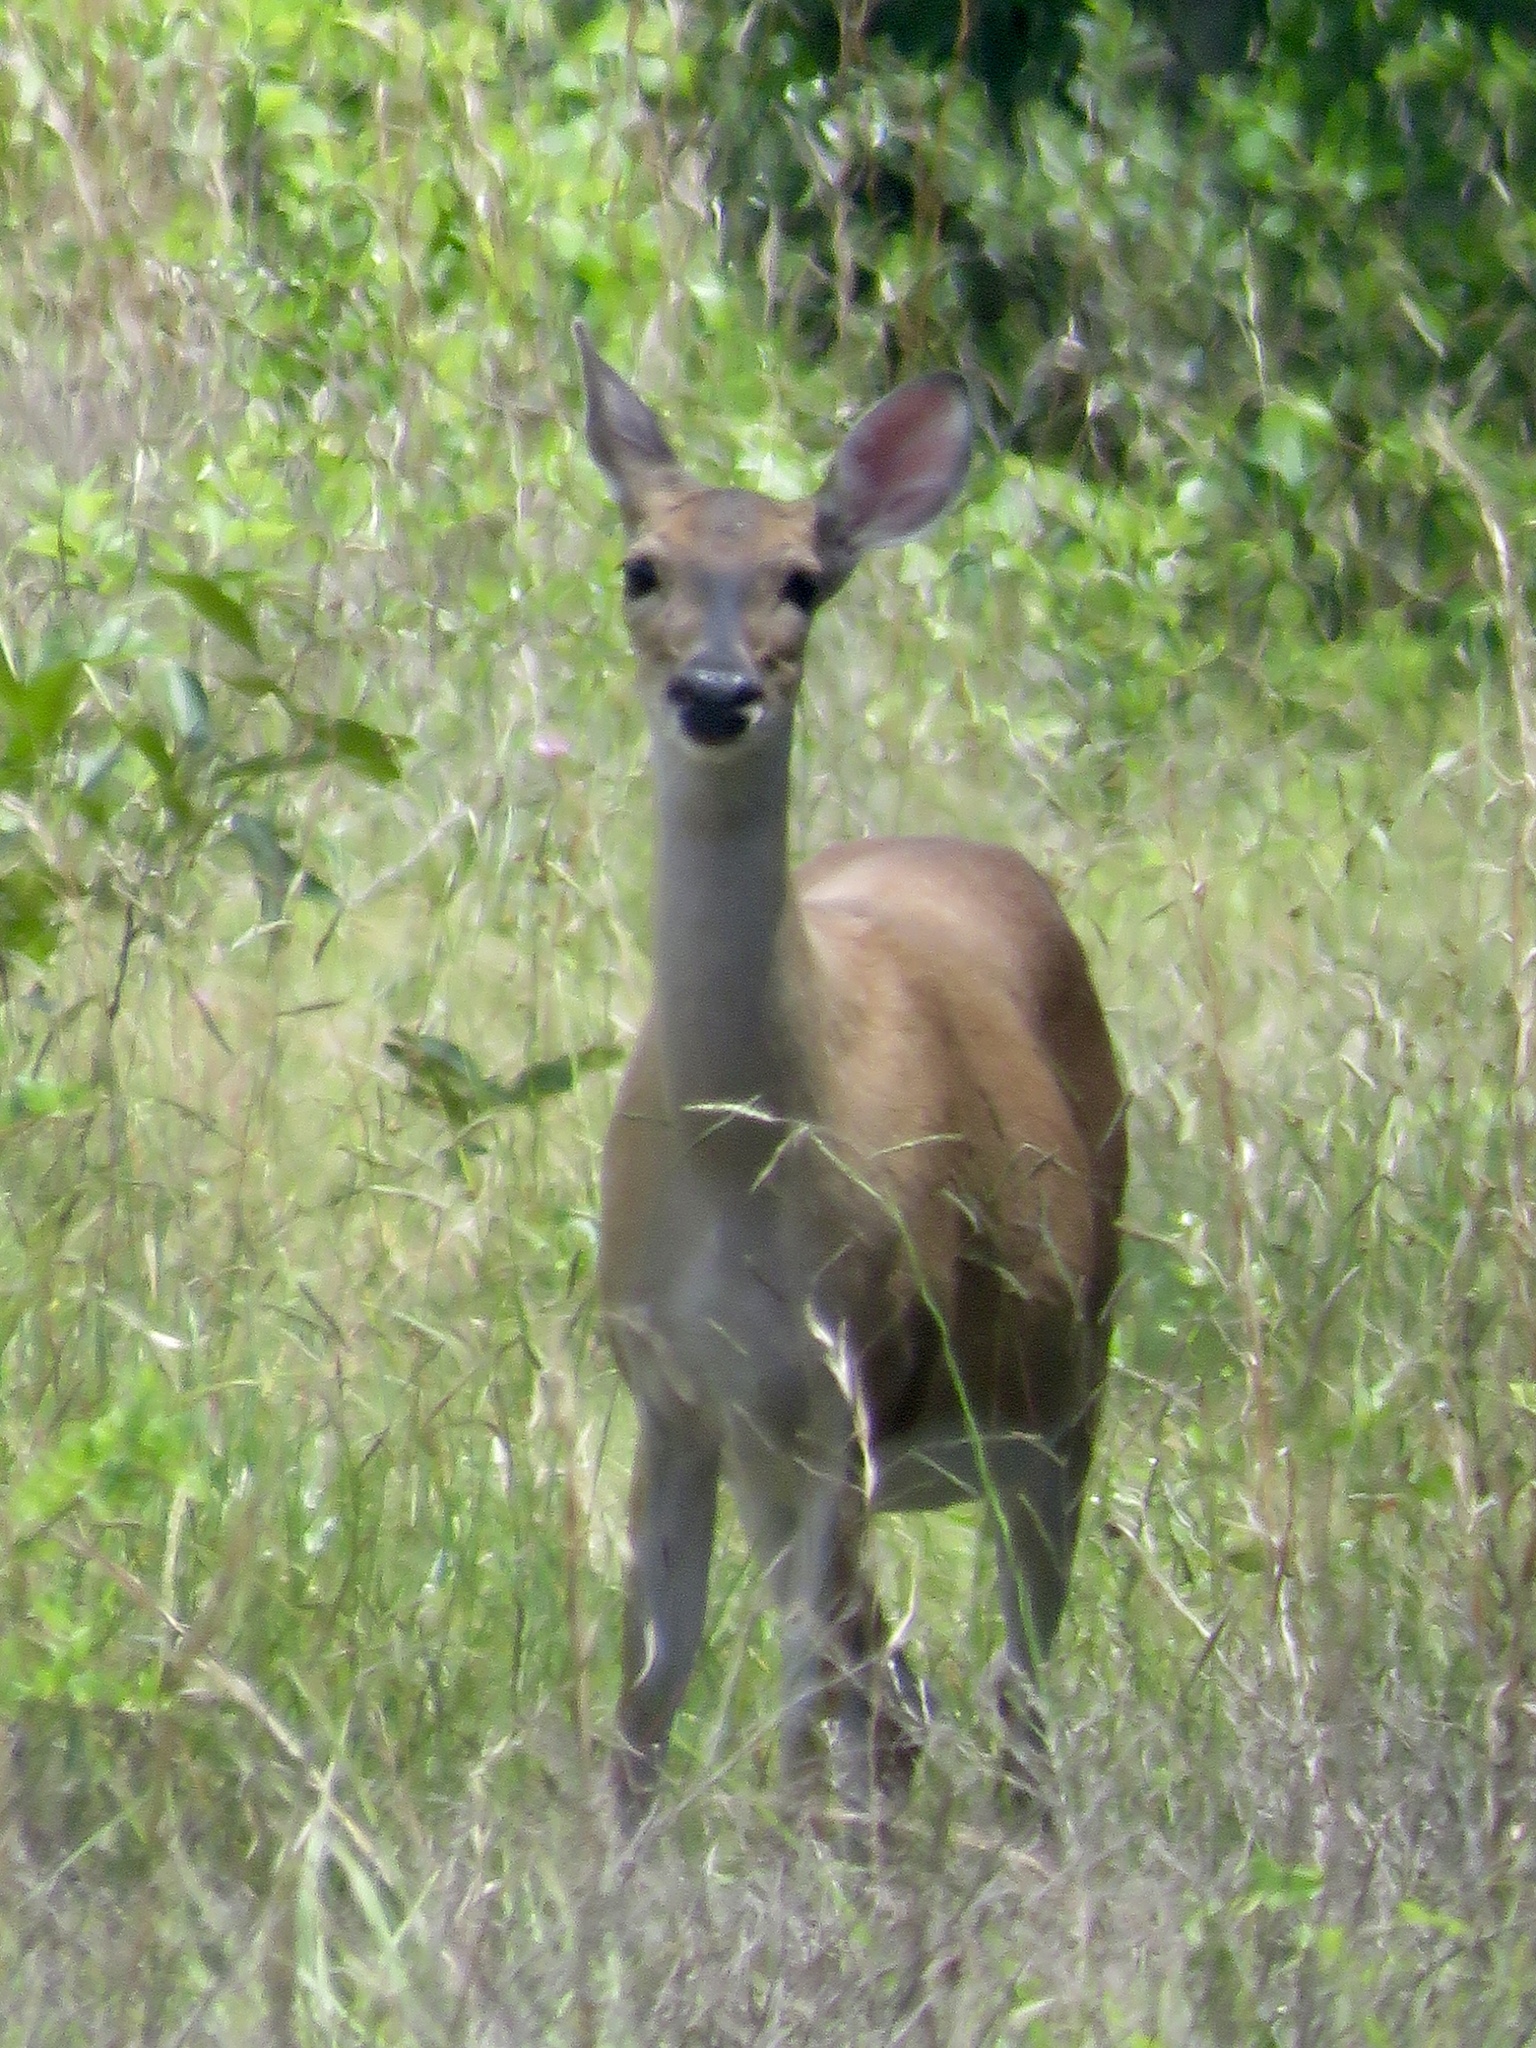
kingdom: Animalia
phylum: Chordata
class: Mammalia
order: Artiodactyla
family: Cervidae
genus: Odocoileus
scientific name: Odocoileus virginianus
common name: White-tailed deer
